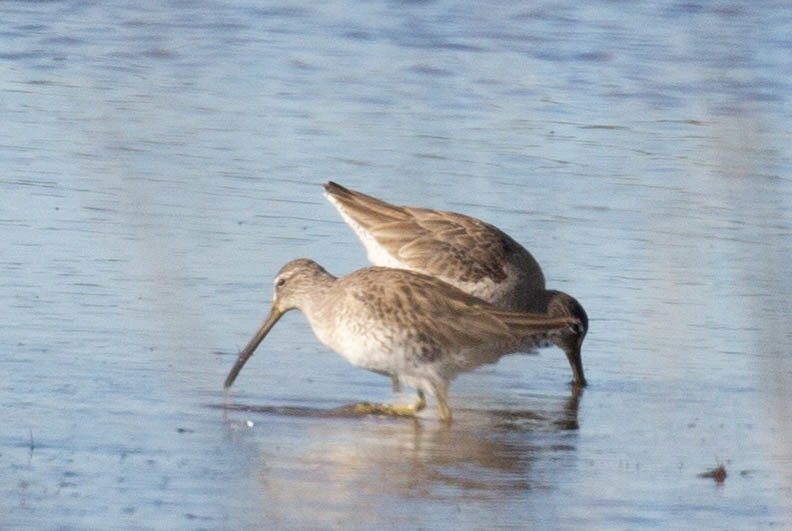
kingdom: Animalia
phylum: Chordata
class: Aves
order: Charadriiformes
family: Scolopacidae
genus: Limnodromus
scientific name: Limnodromus griseus
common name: Short-billed dowitcher
